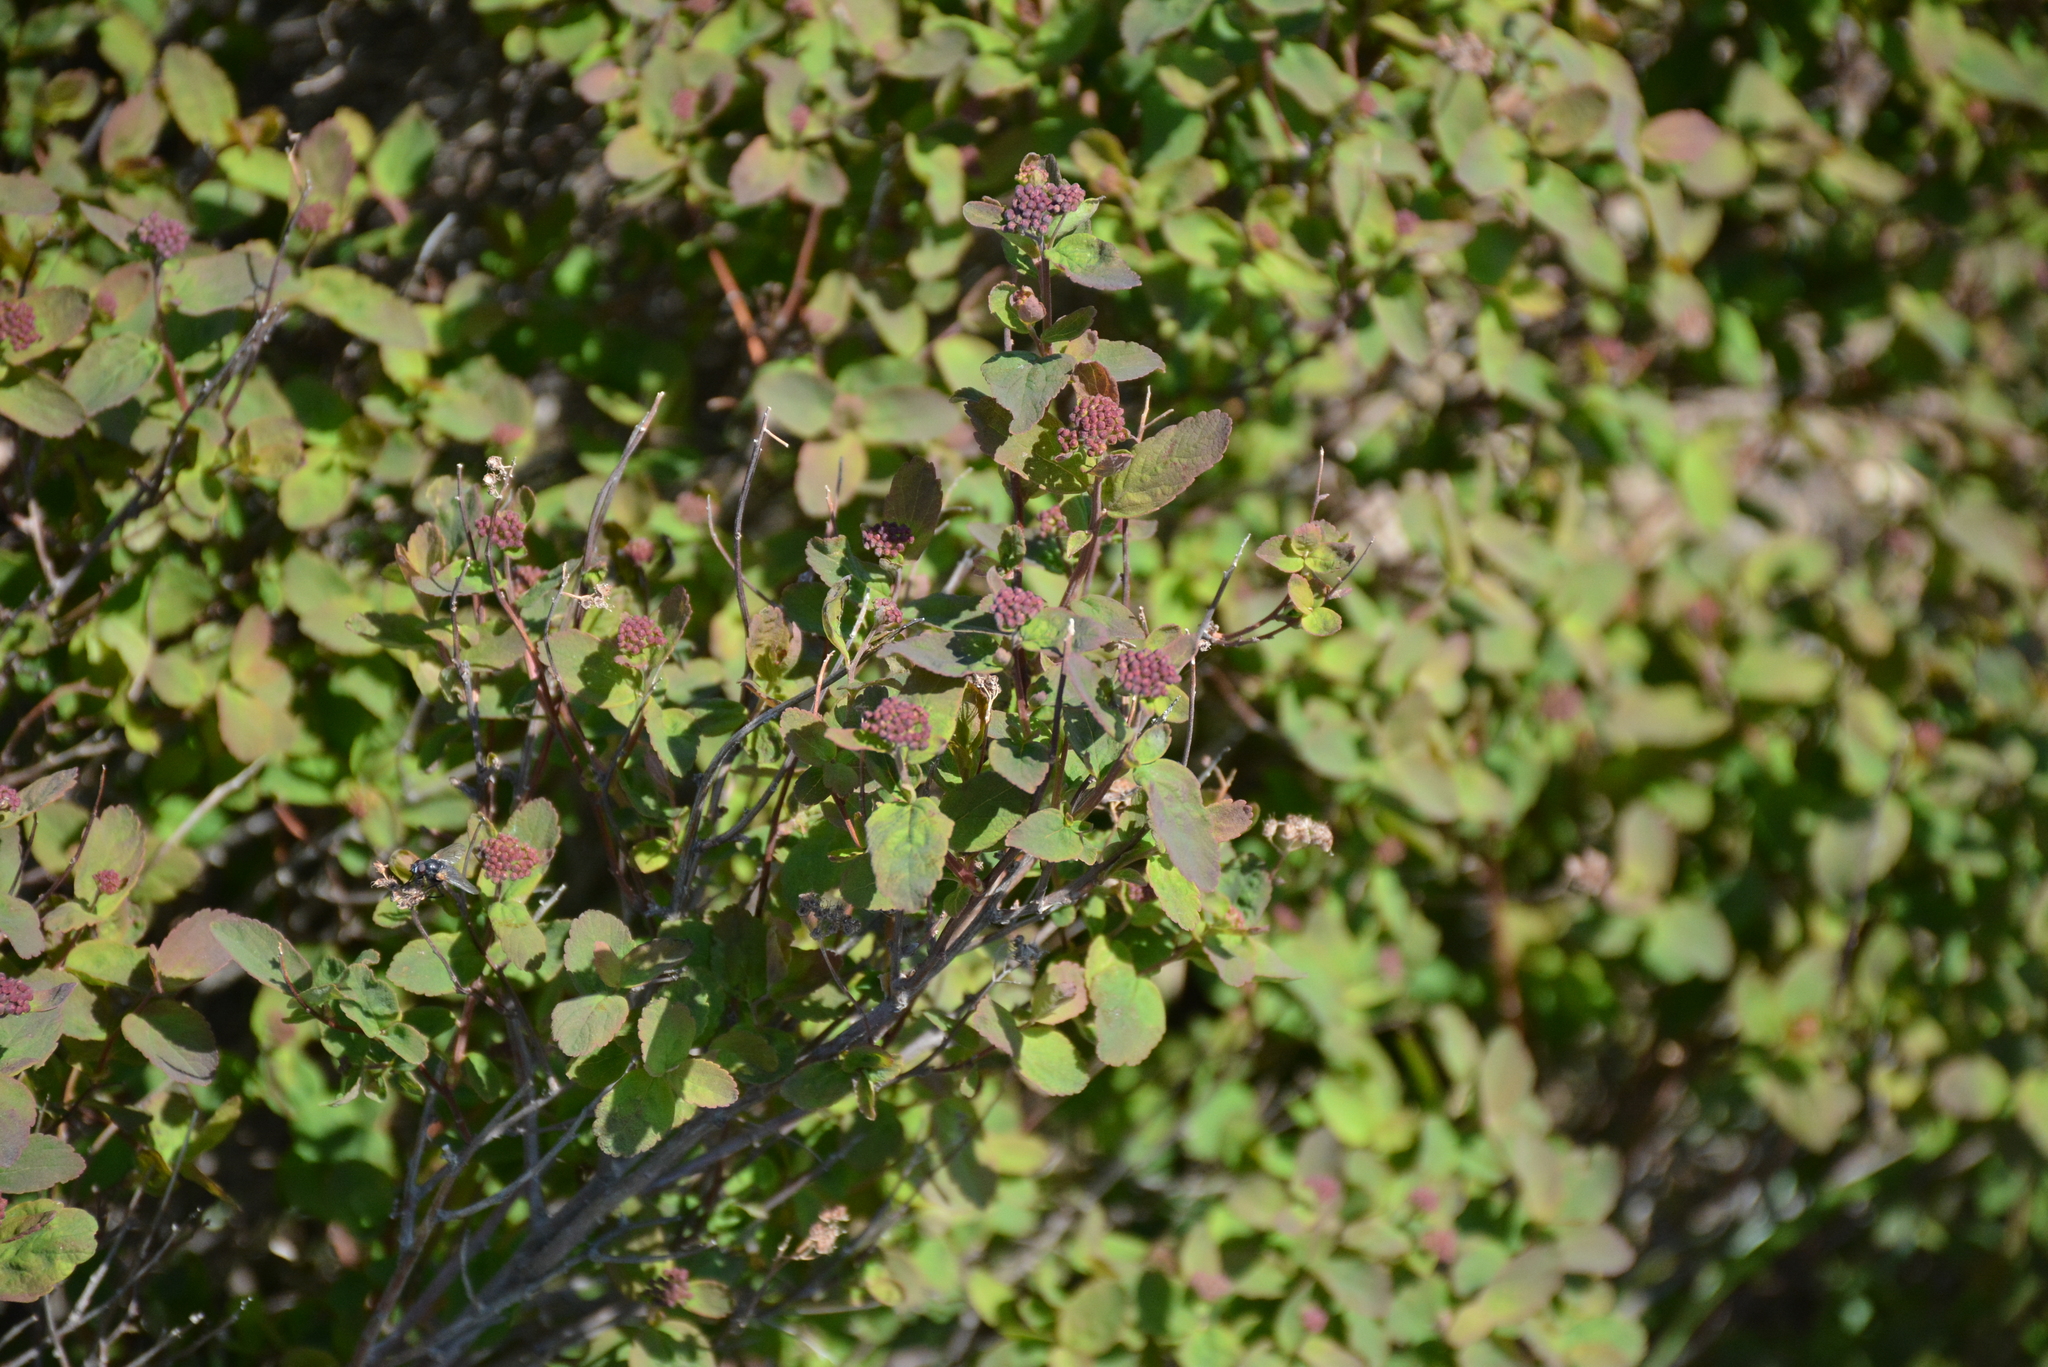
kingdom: Plantae
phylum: Tracheophyta
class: Magnoliopsida
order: Rosales
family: Rosaceae
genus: Spiraea
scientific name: Spiraea stevenii
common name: Steven's meadowsweet
